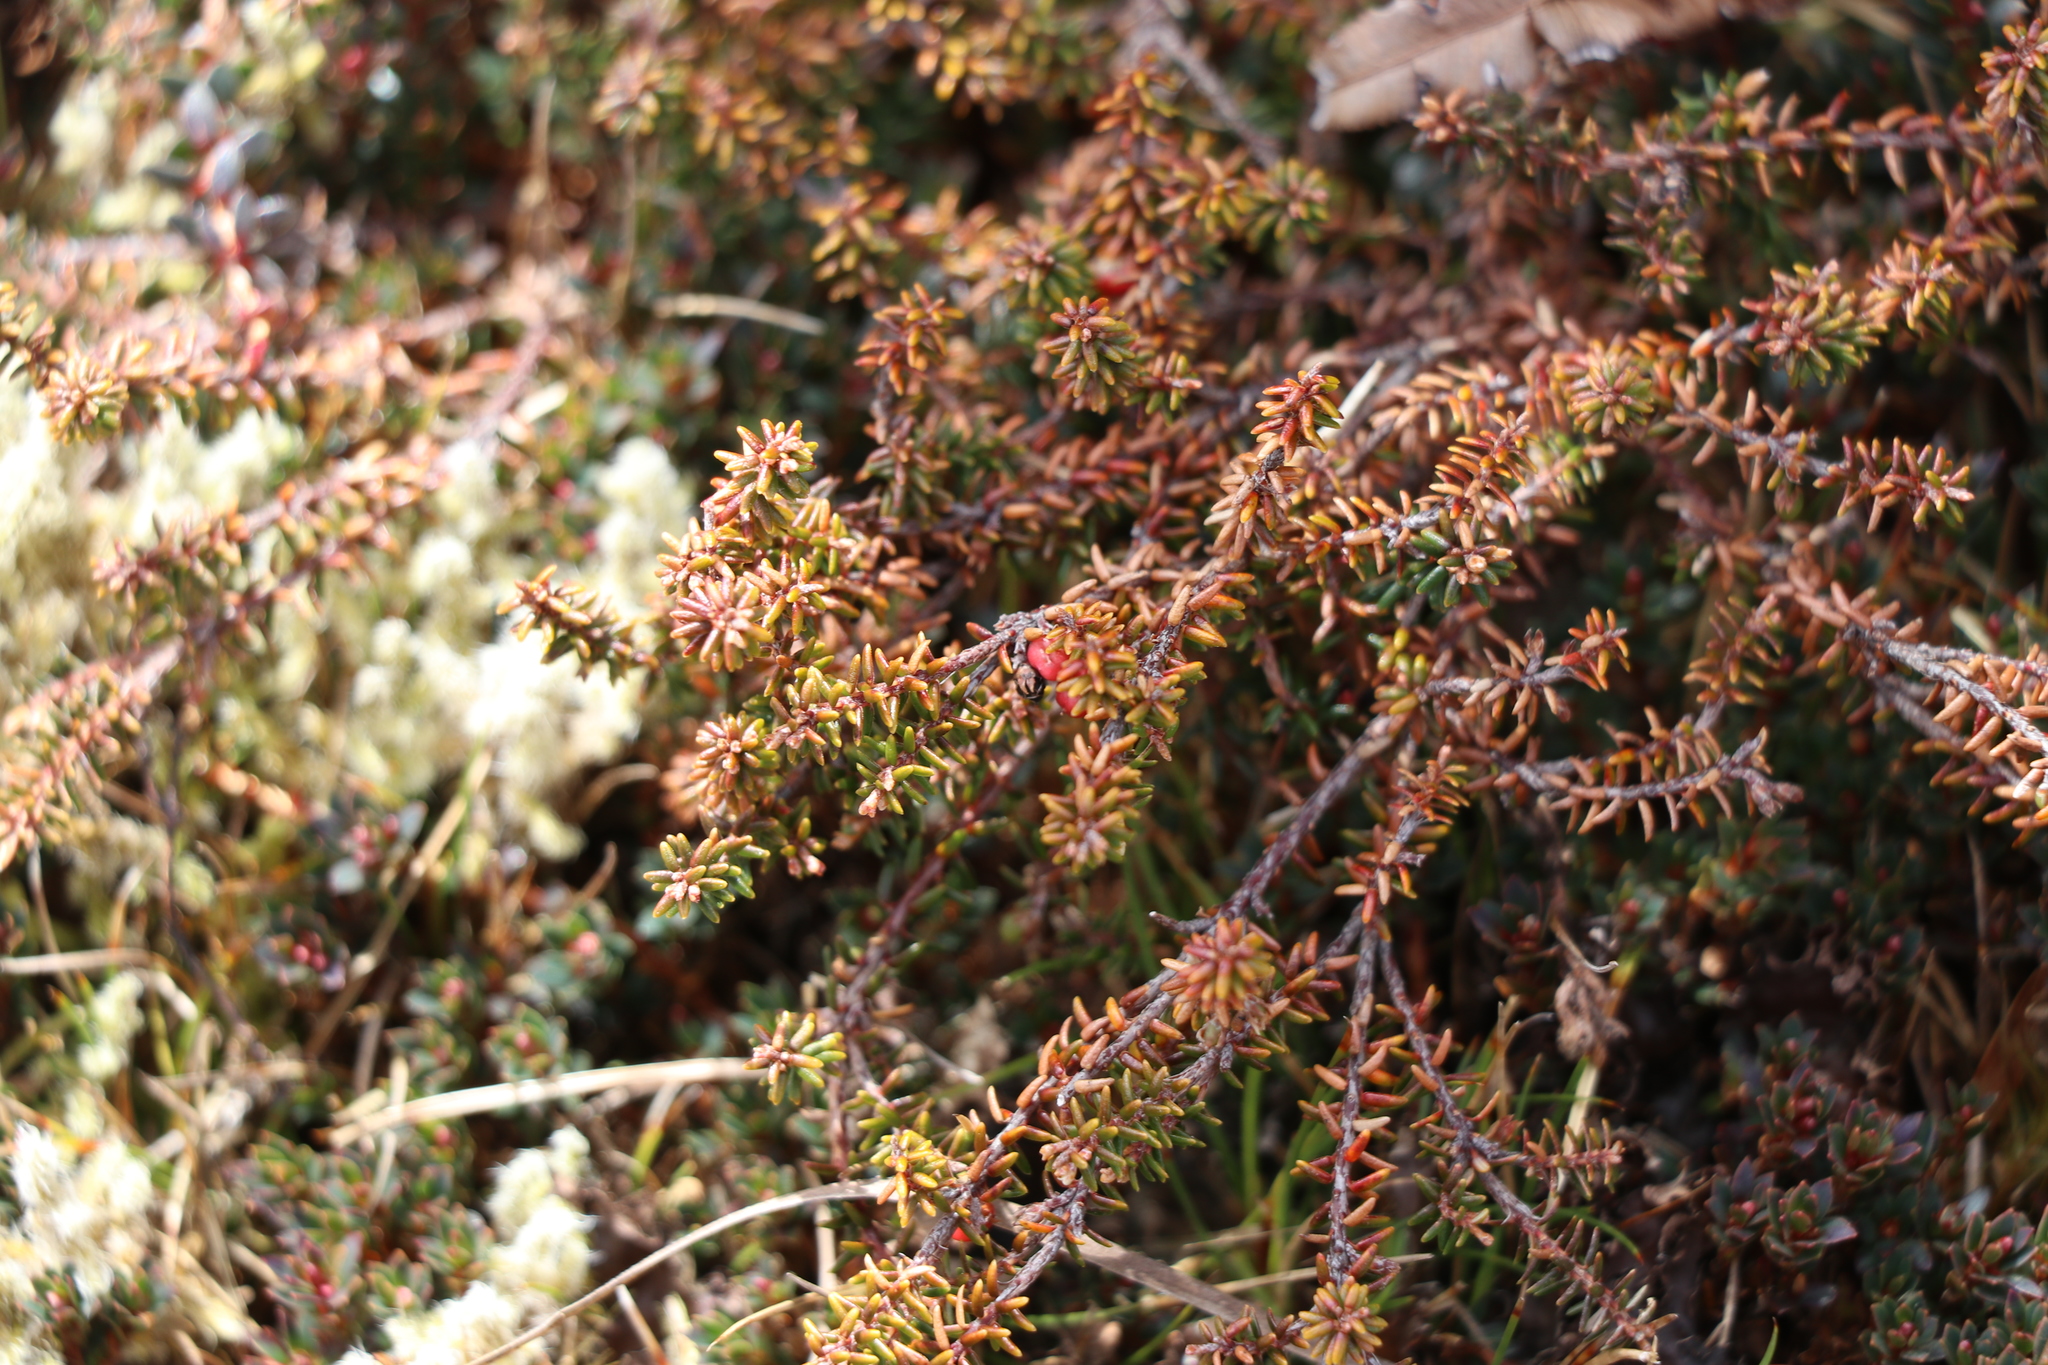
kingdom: Plantae
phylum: Tracheophyta
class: Magnoliopsida
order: Ericales
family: Ericaceae
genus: Androstoma
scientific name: Androstoma empetrifolia
